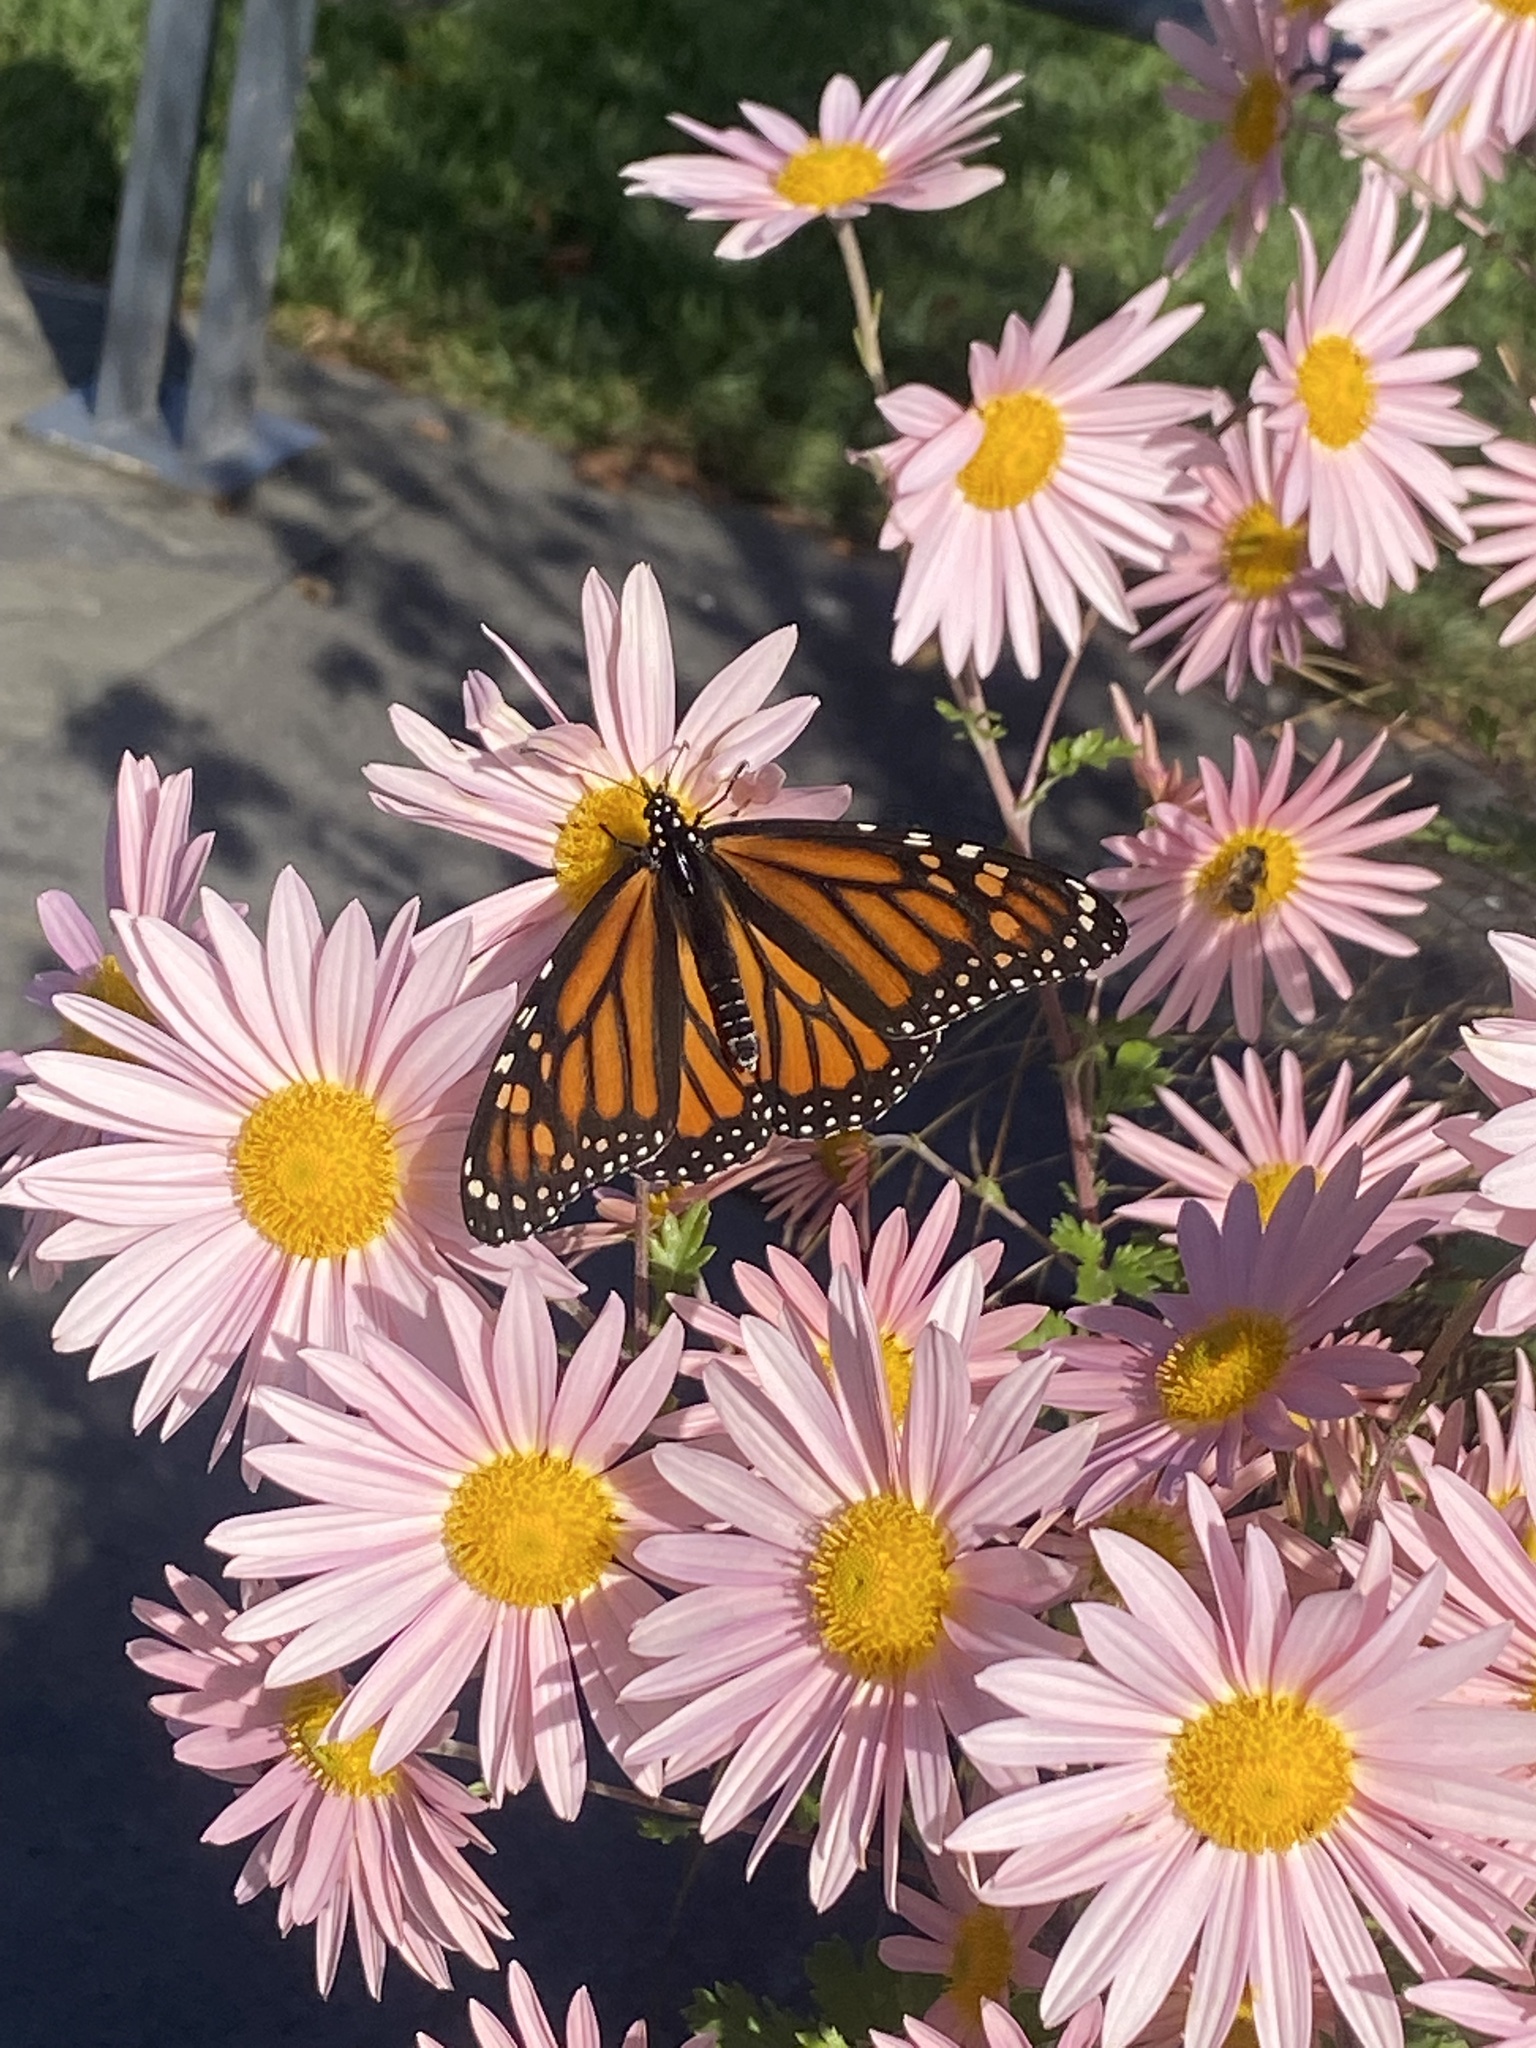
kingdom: Animalia
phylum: Arthropoda
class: Insecta
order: Lepidoptera
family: Nymphalidae
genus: Danaus
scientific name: Danaus plexippus
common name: Monarch
